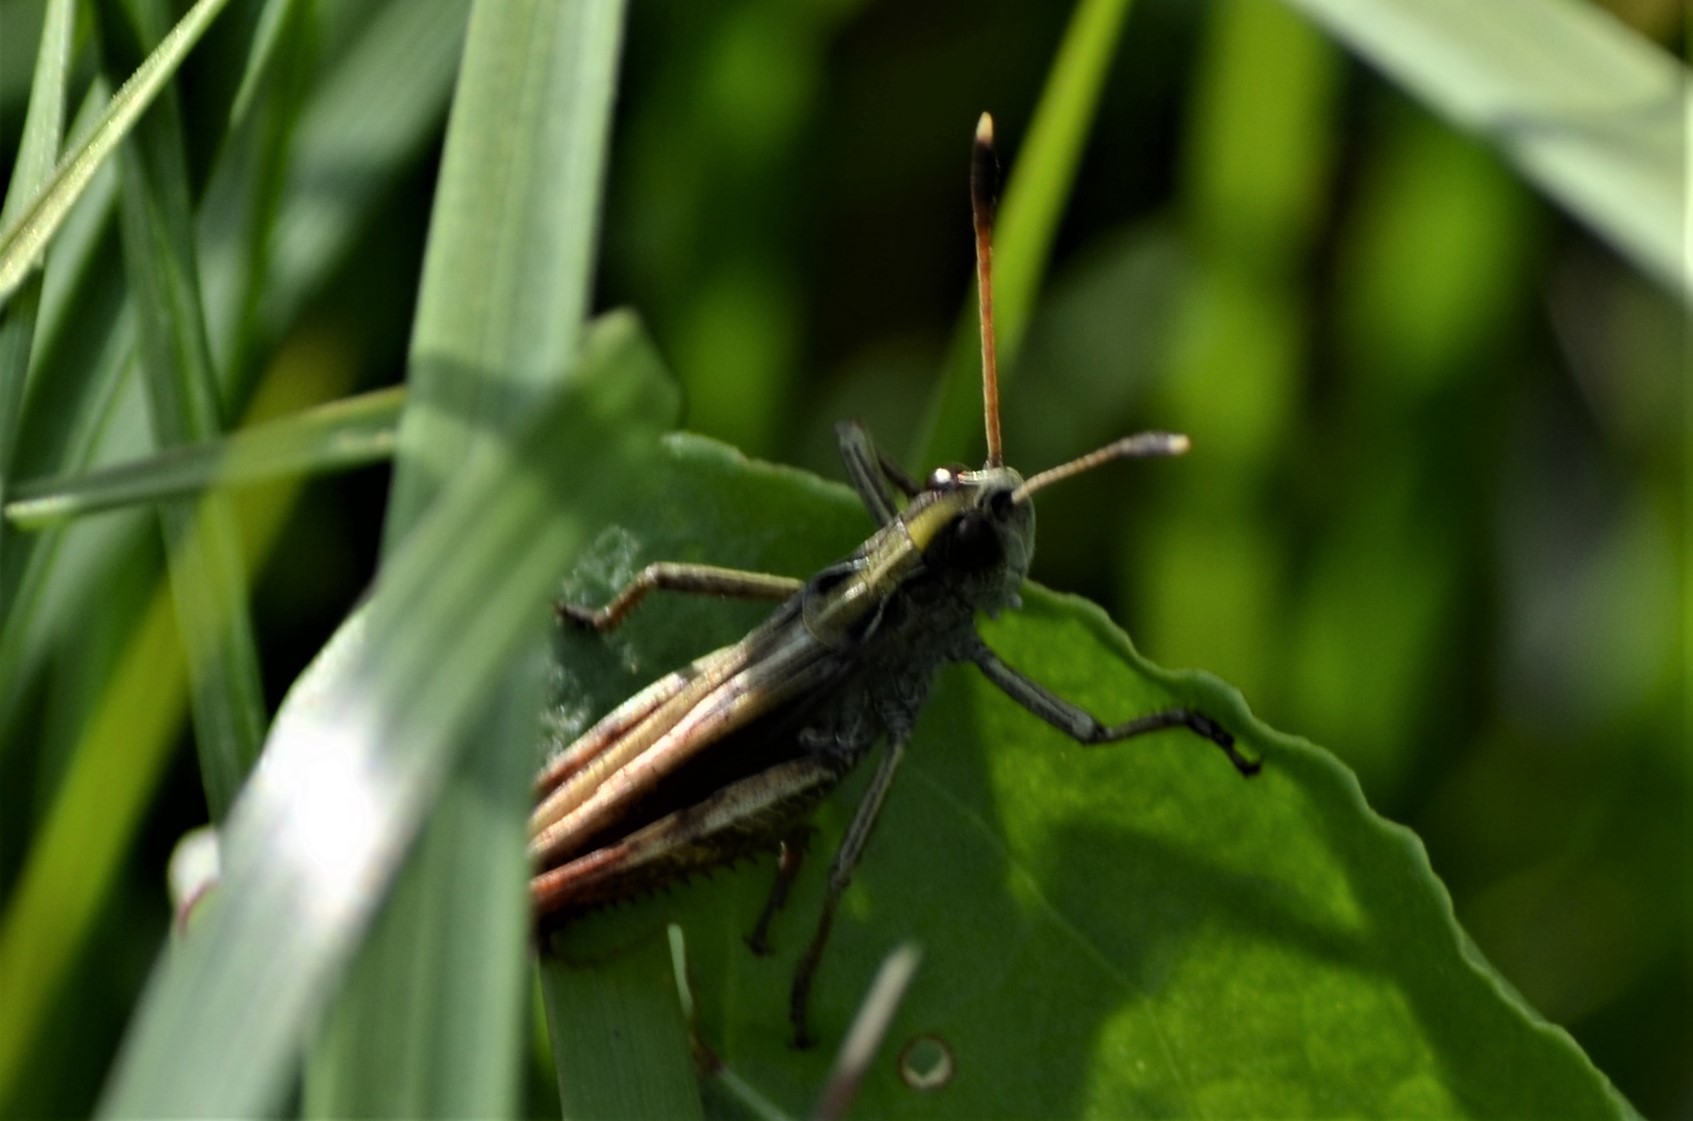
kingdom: Animalia
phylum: Arthropoda
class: Insecta
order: Orthoptera
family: Acrididae
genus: Gomphocerippus
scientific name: Gomphocerippus rufus
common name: Rufous grasshopper
